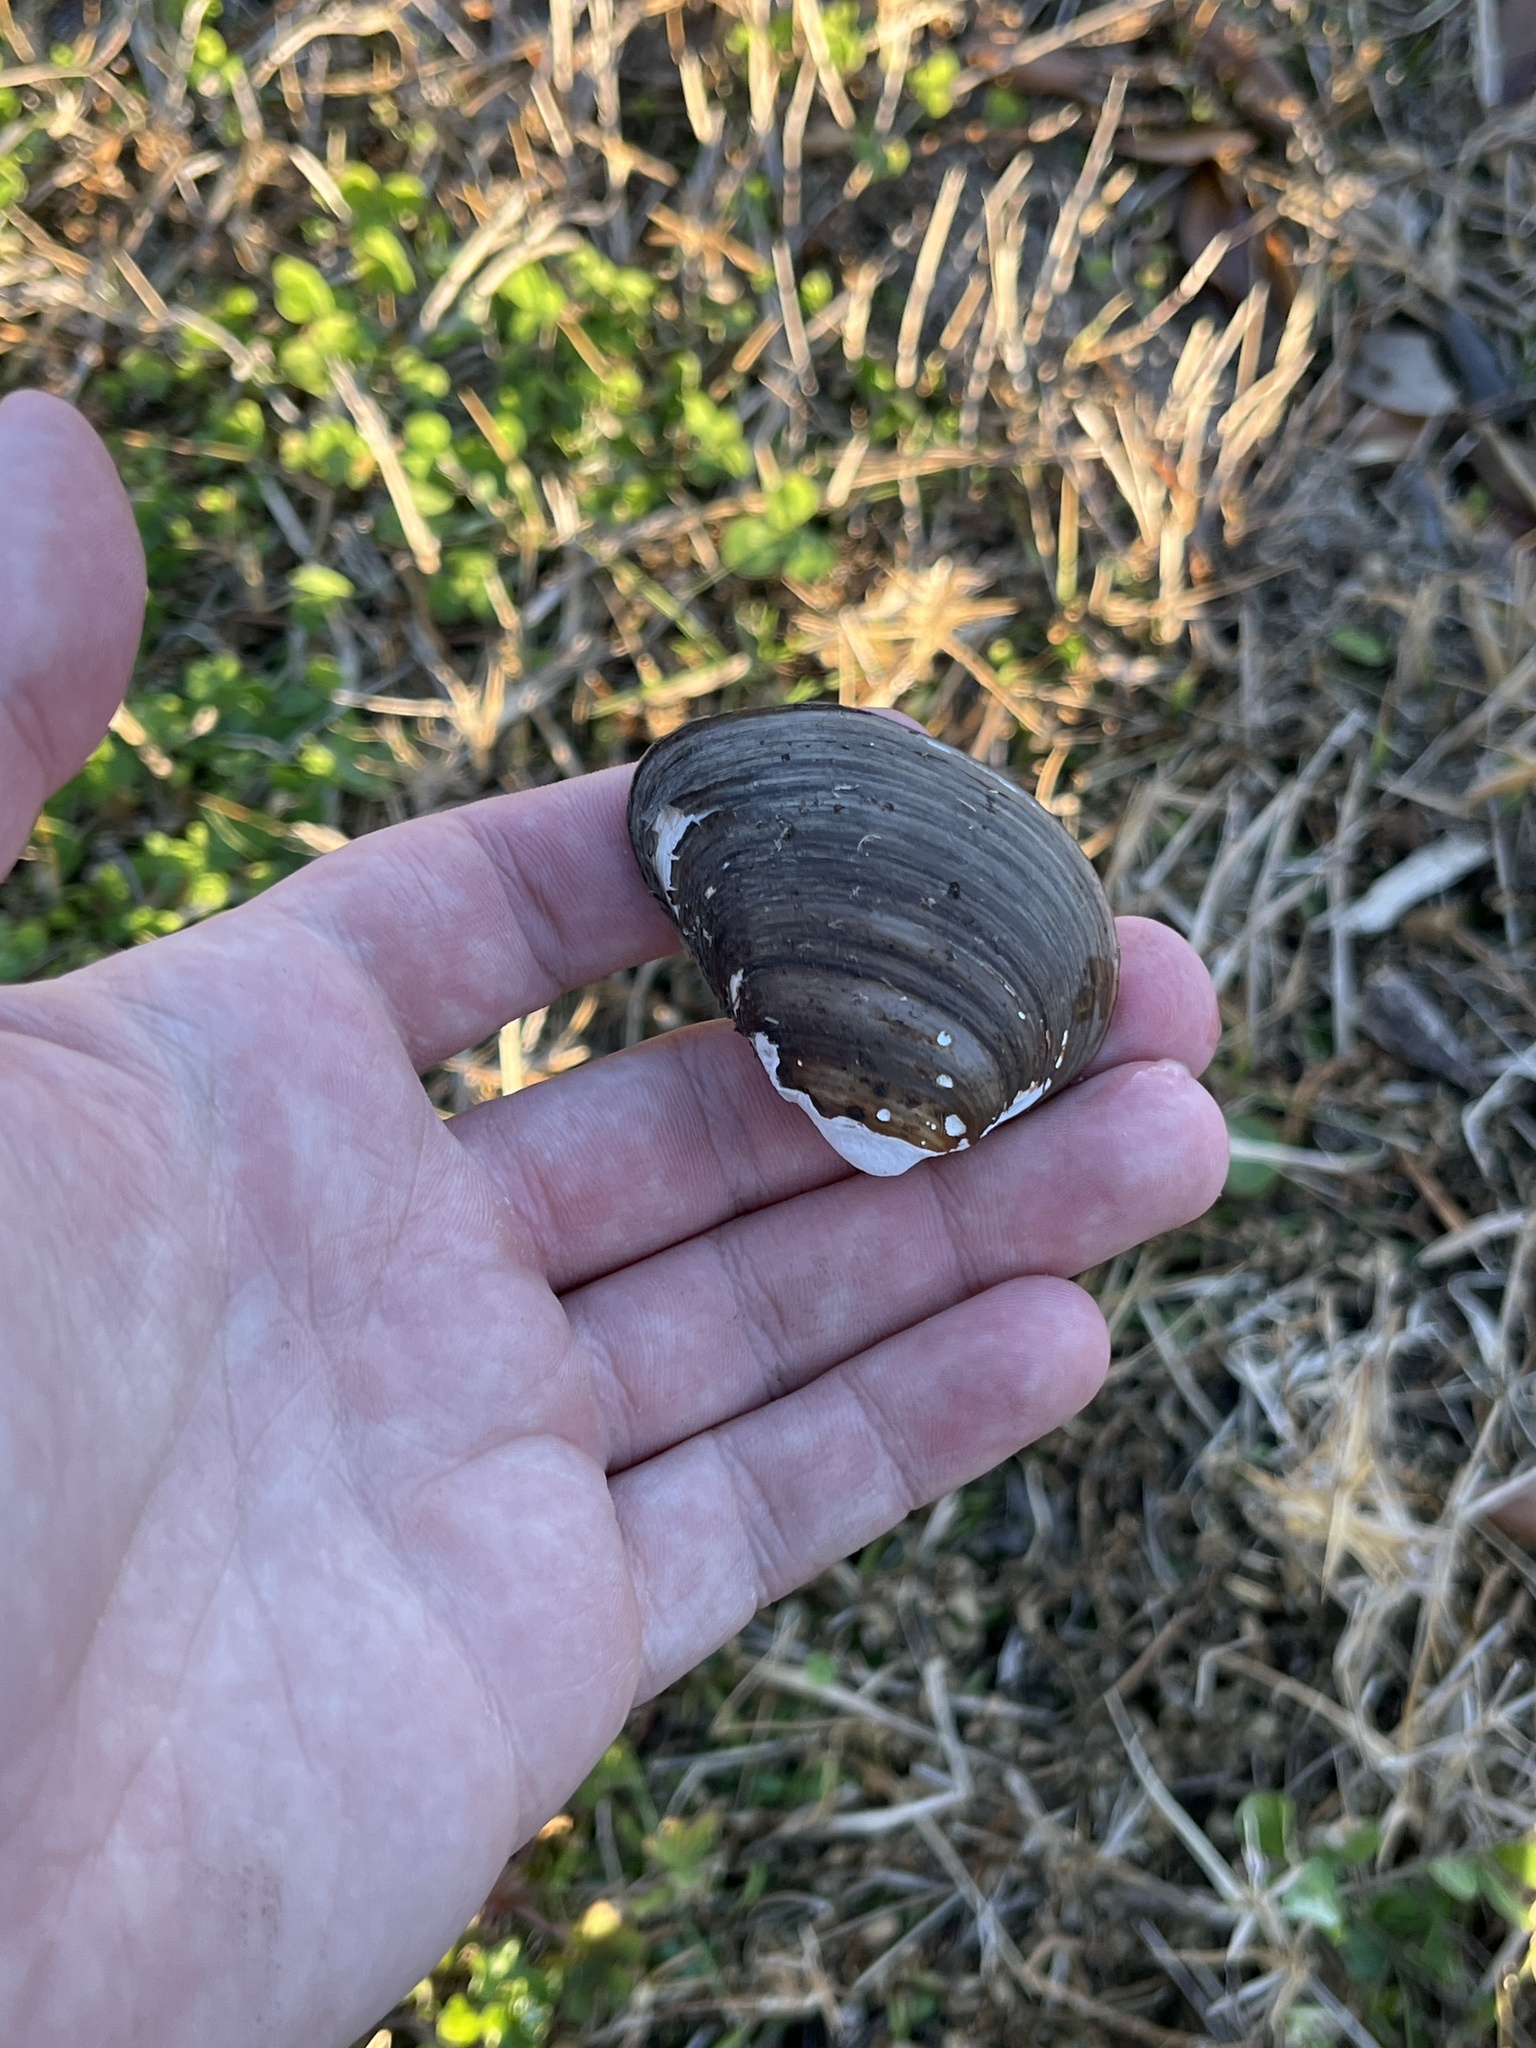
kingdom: Animalia
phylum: Mollusca
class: Bivalvia
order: Venerida
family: Mactridae
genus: Rangia
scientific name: Rangia cuneata
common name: Atlantic rangia
